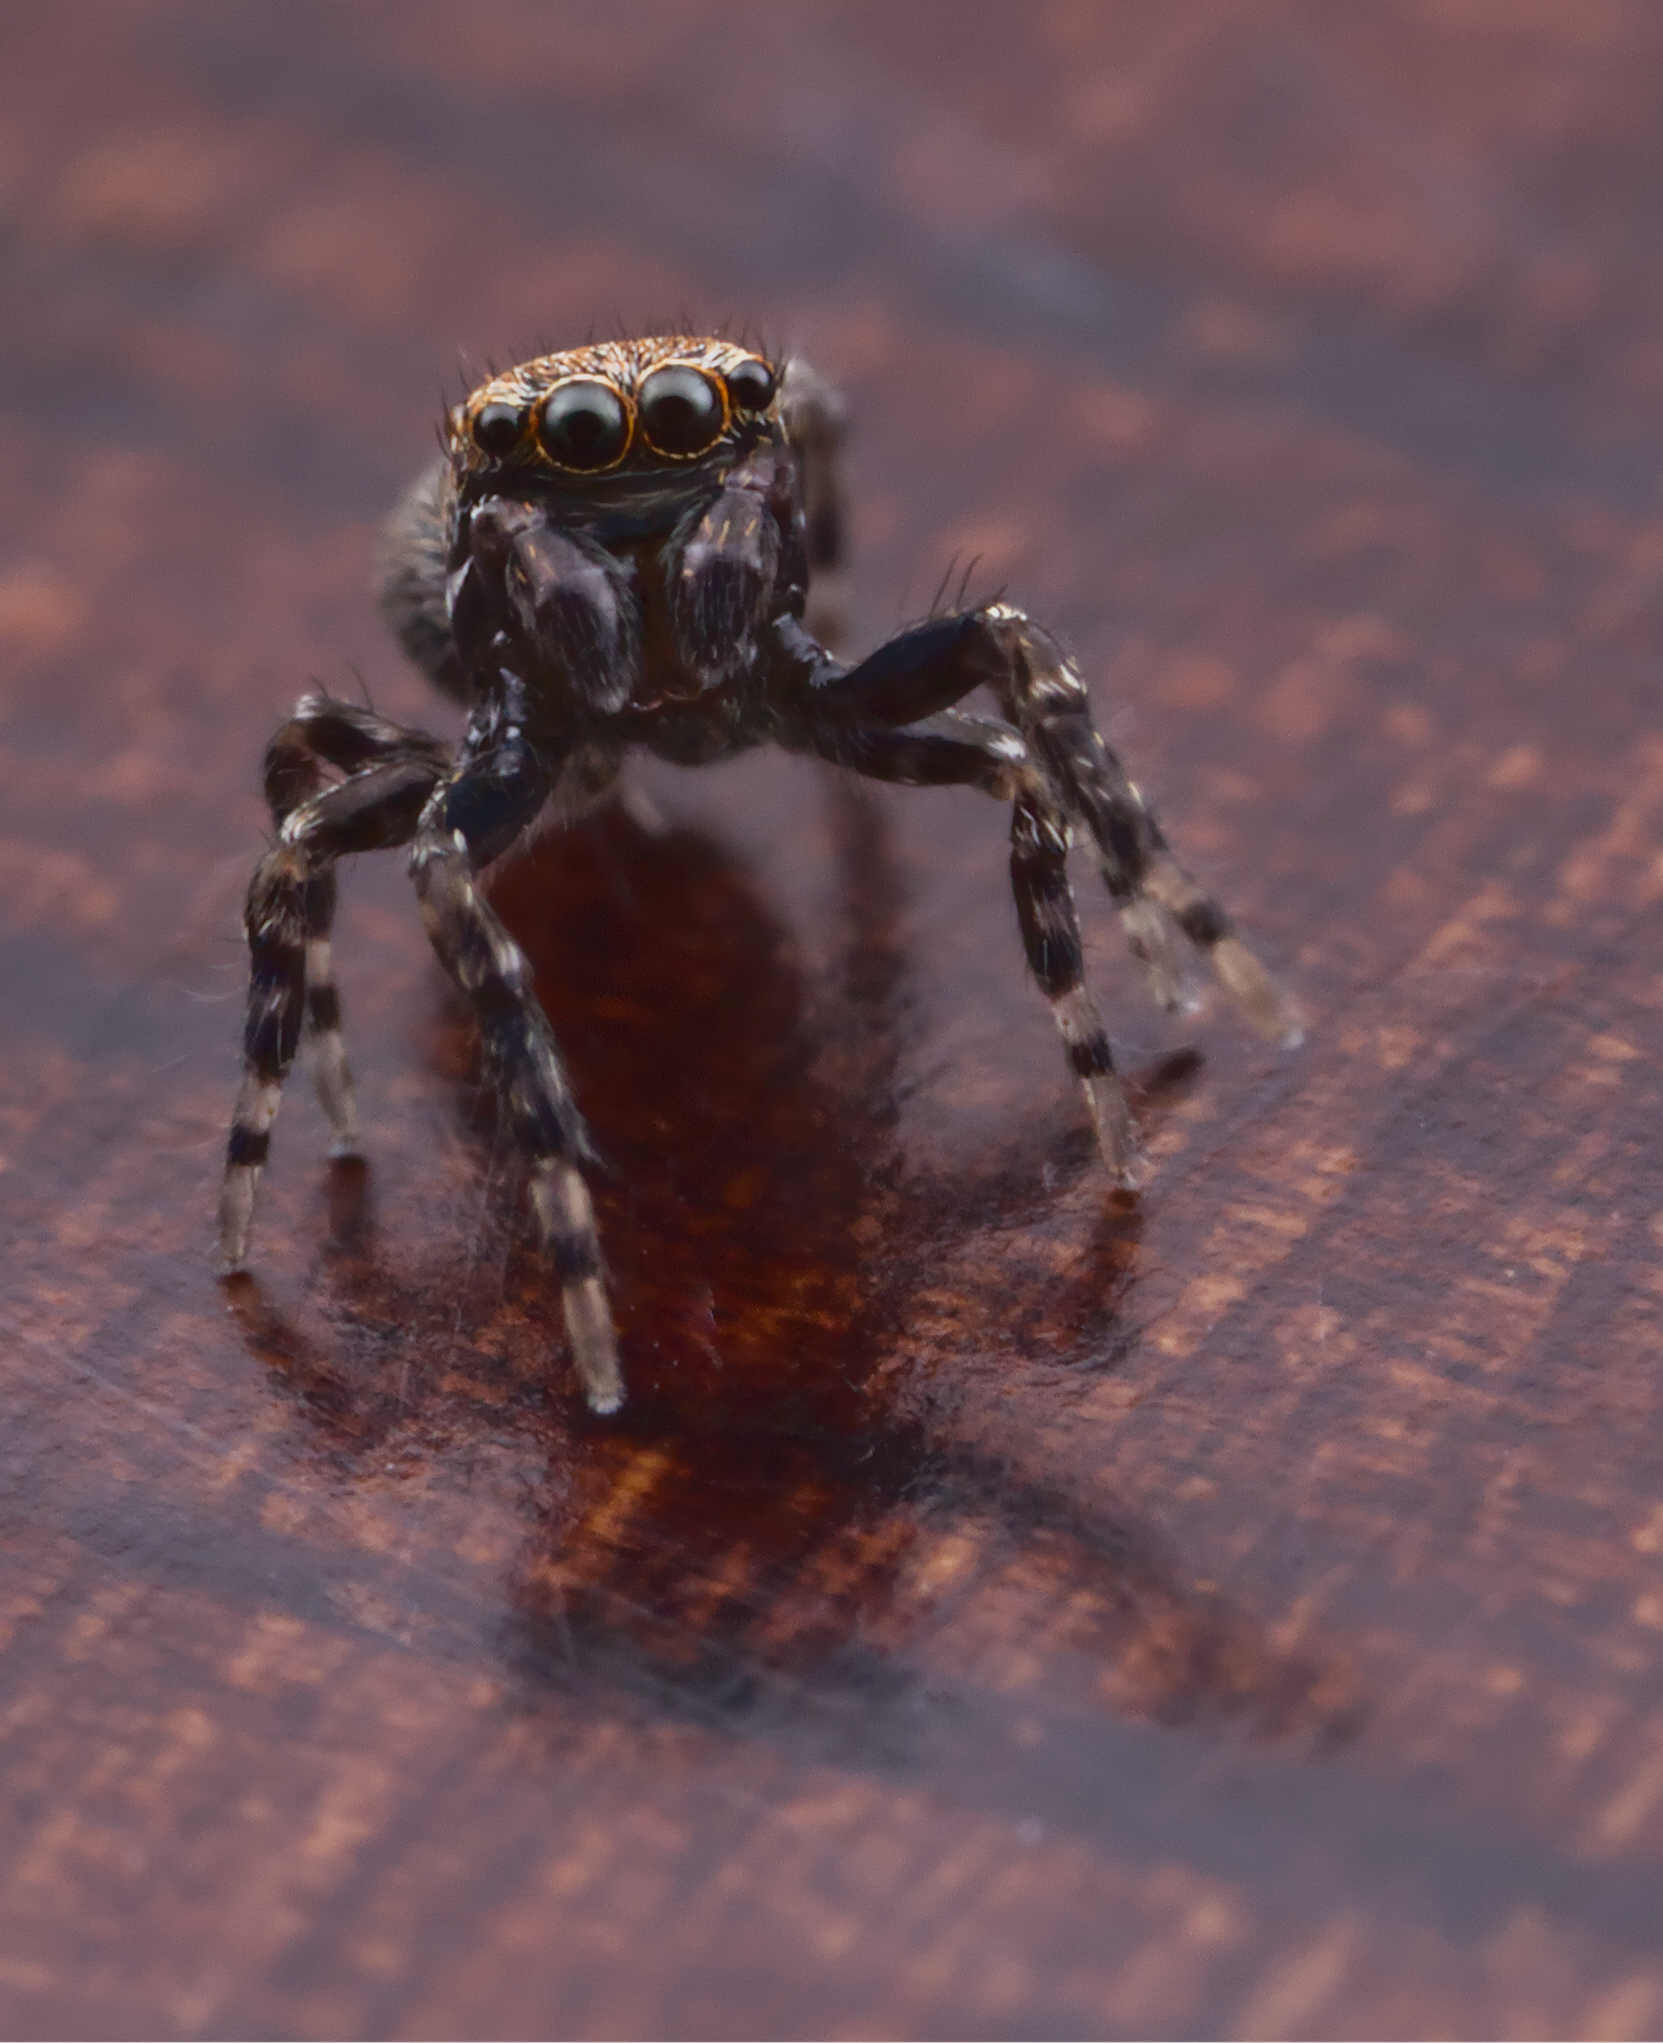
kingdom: Animalia
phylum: Arthropoda
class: Arachnida
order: Araneae
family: Salticidae
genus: Attinella
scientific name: Attinella concolor
